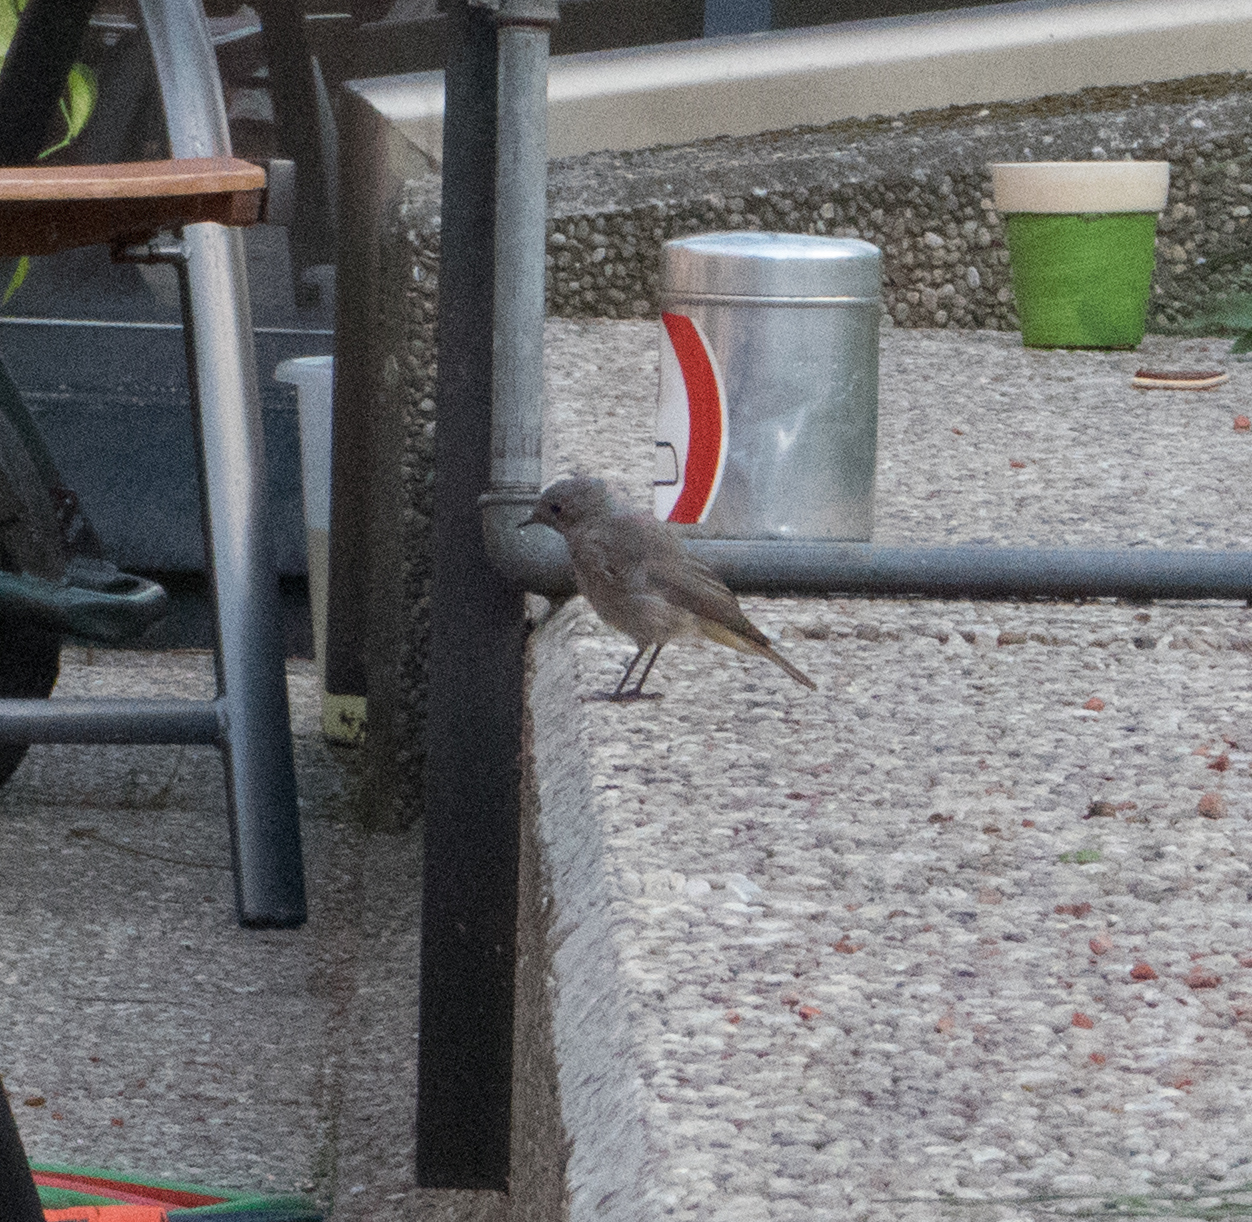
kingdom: Animalia
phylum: Chordata
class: Aves
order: Passeriformes
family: Muscicapidae
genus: Phoenicurus
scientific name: Phoenicurus ochruros
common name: Black redstart
